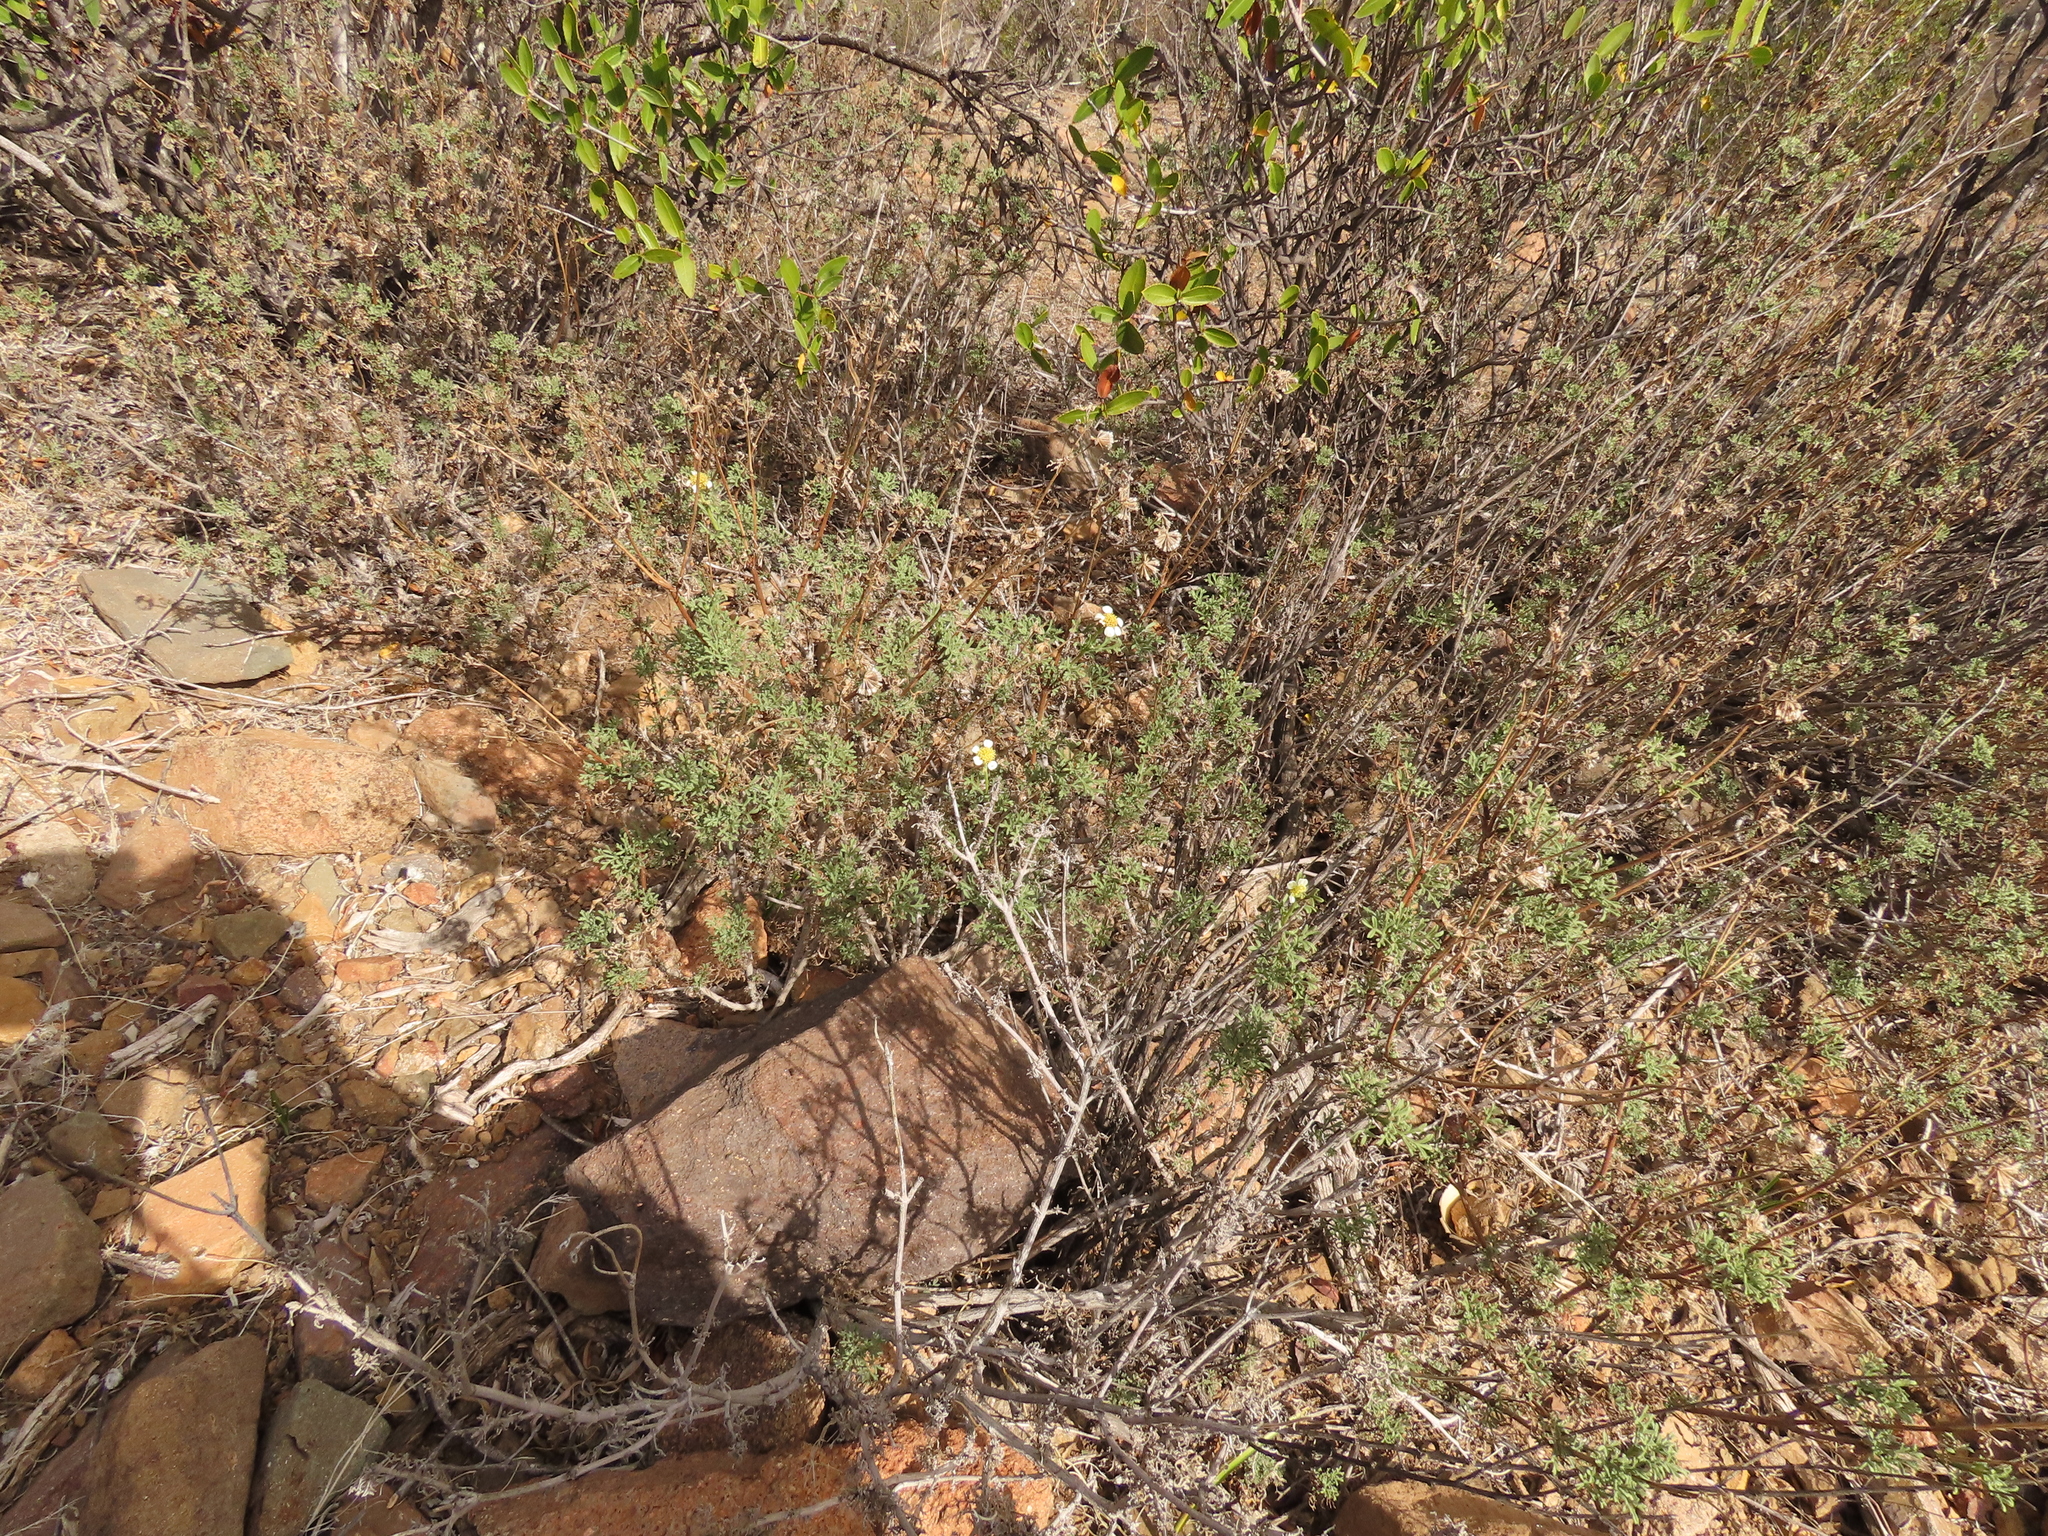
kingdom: Plantae
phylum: Tracheophyta
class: Magnoliopsida
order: Asterales
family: Asteraceae
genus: Bahia
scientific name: Bahia ambrosioides
